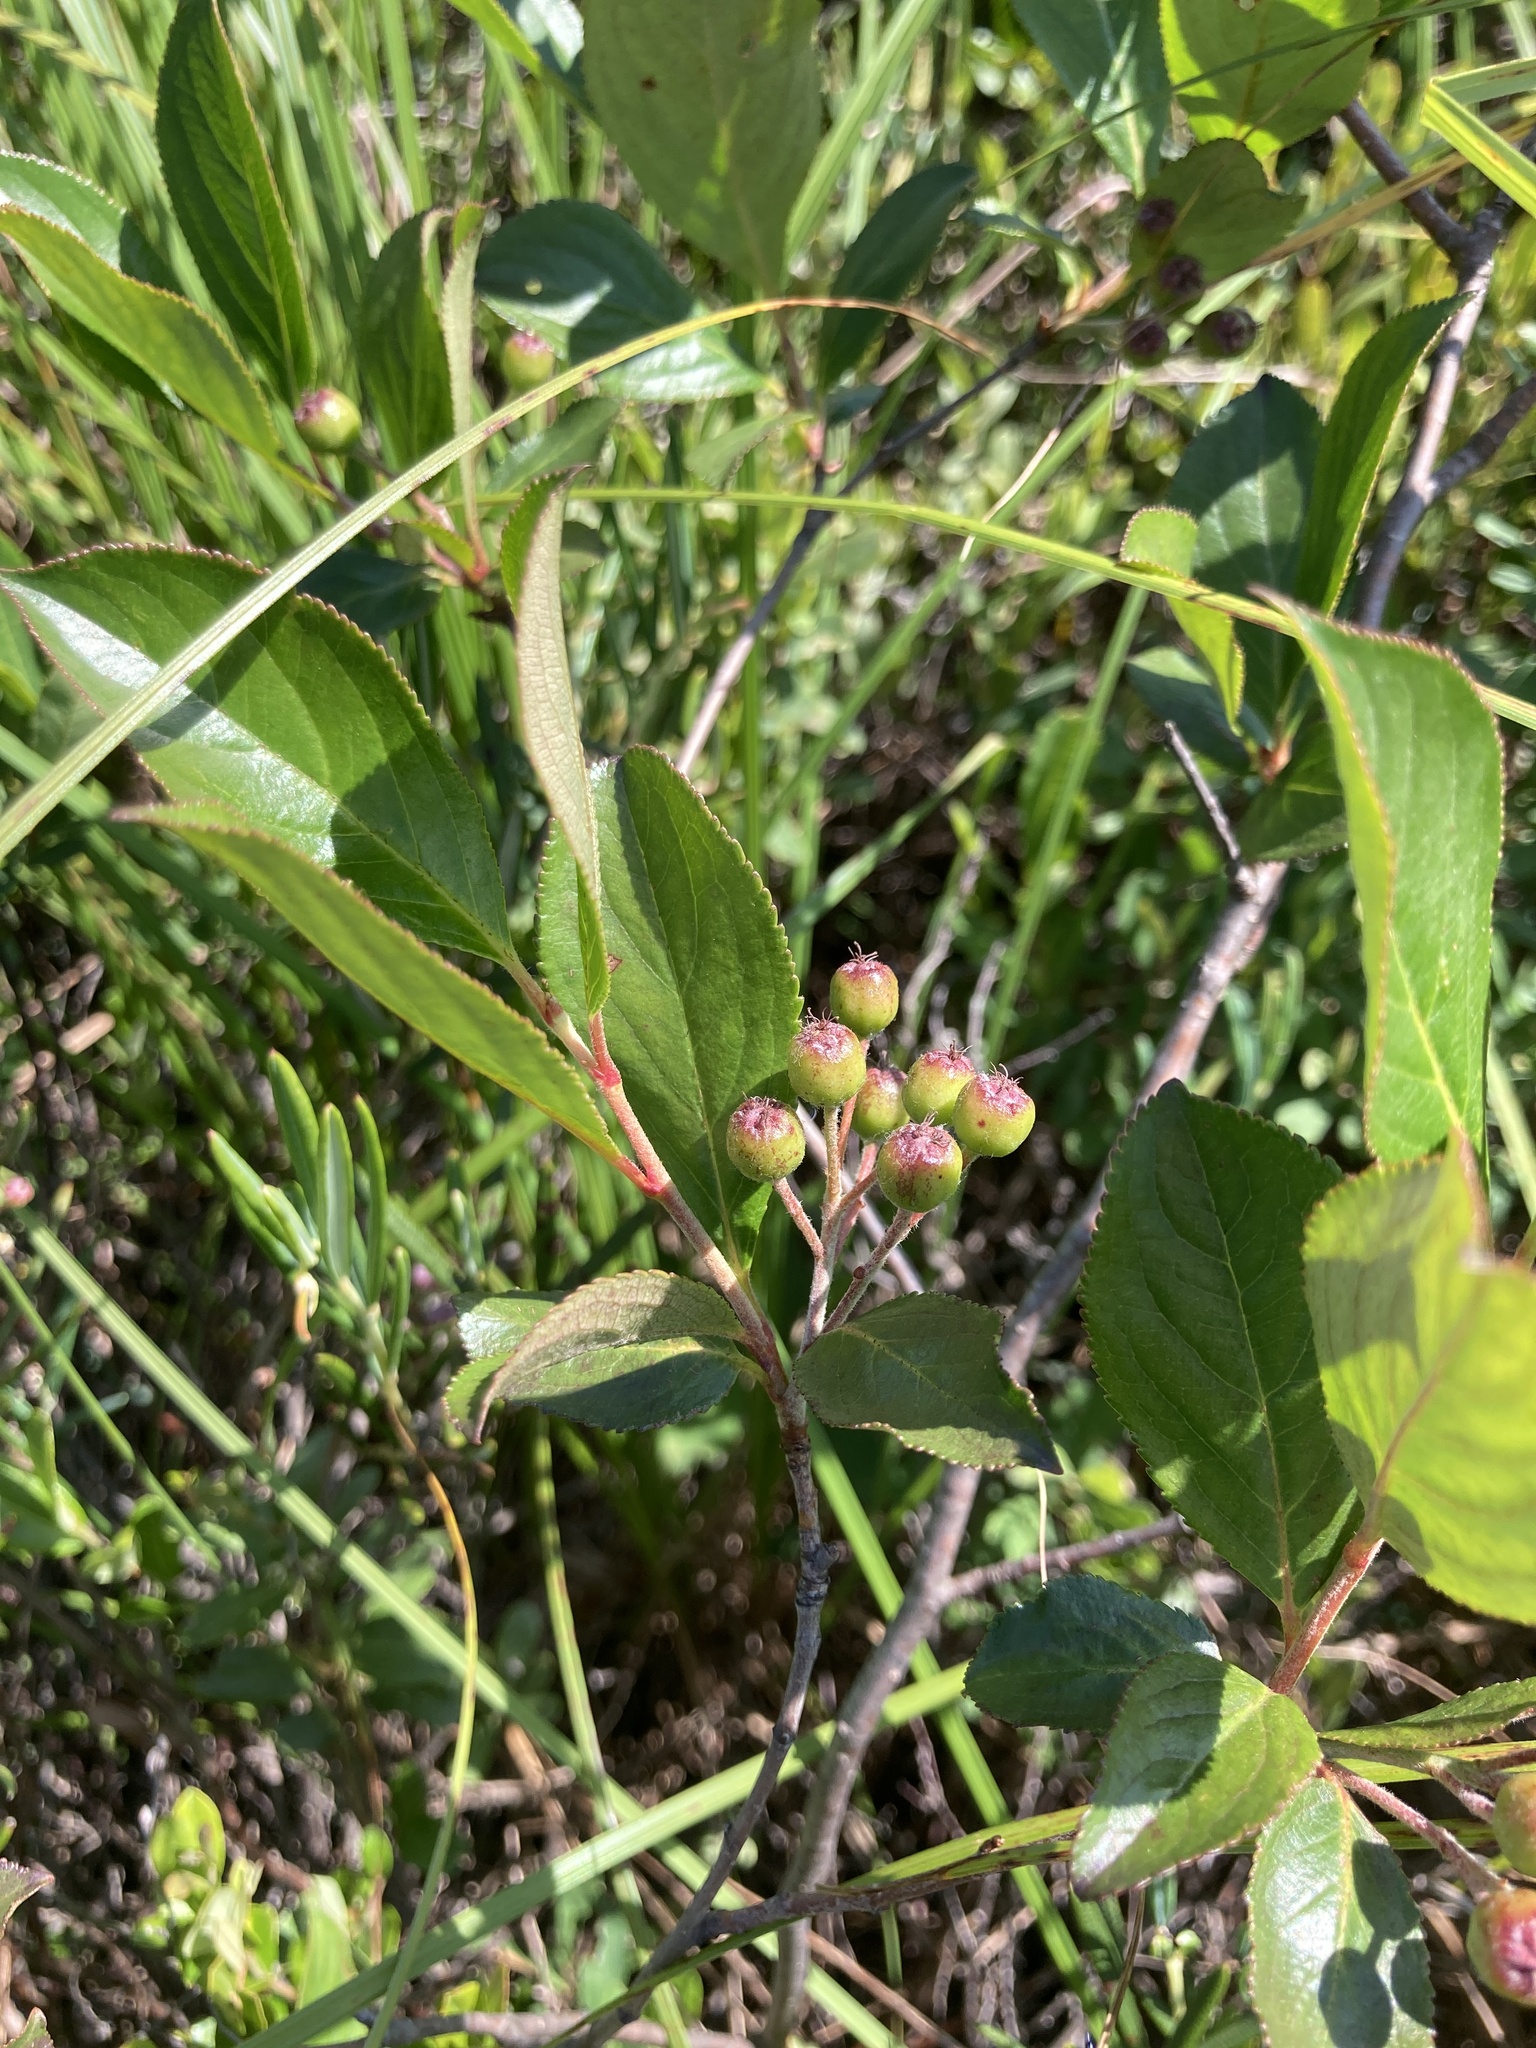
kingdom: Plantae
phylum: Tracheophyta
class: Magnoliopsida
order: Rosales
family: Rosaceae
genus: Aronia
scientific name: Aronia melanocarpa
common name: Black chokeberry
